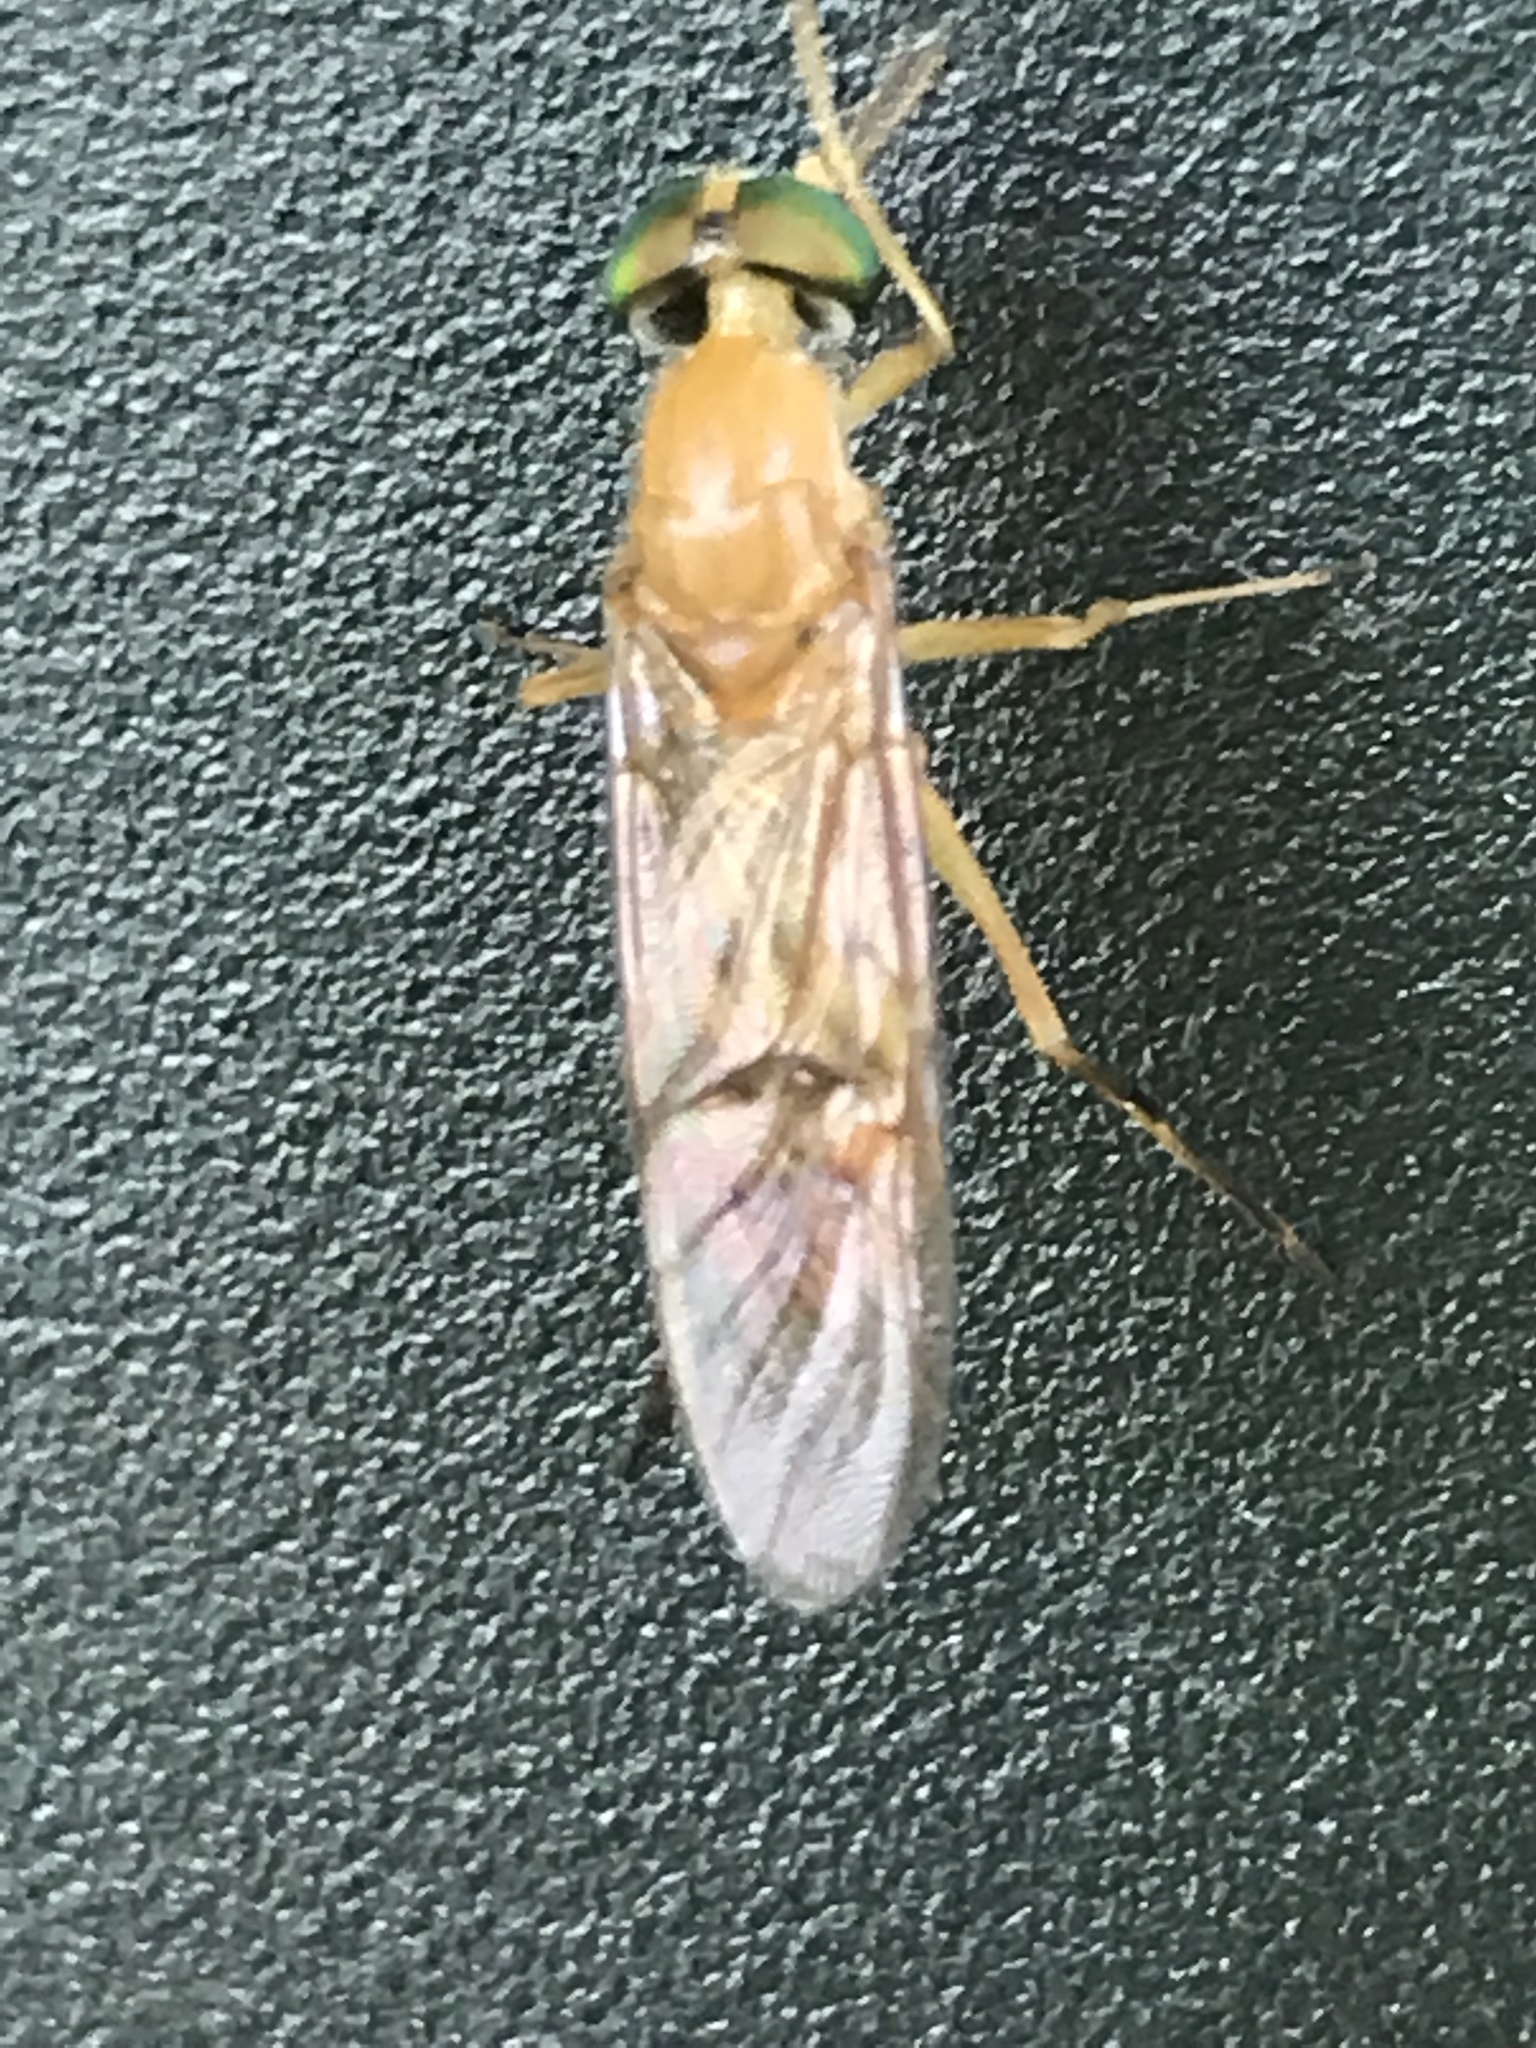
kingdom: Animalia
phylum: Arthropoda
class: Insecta
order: Diptera
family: Stratiomyidae
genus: Ptecticus
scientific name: Ptecticus trivittatus
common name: Compost fly
